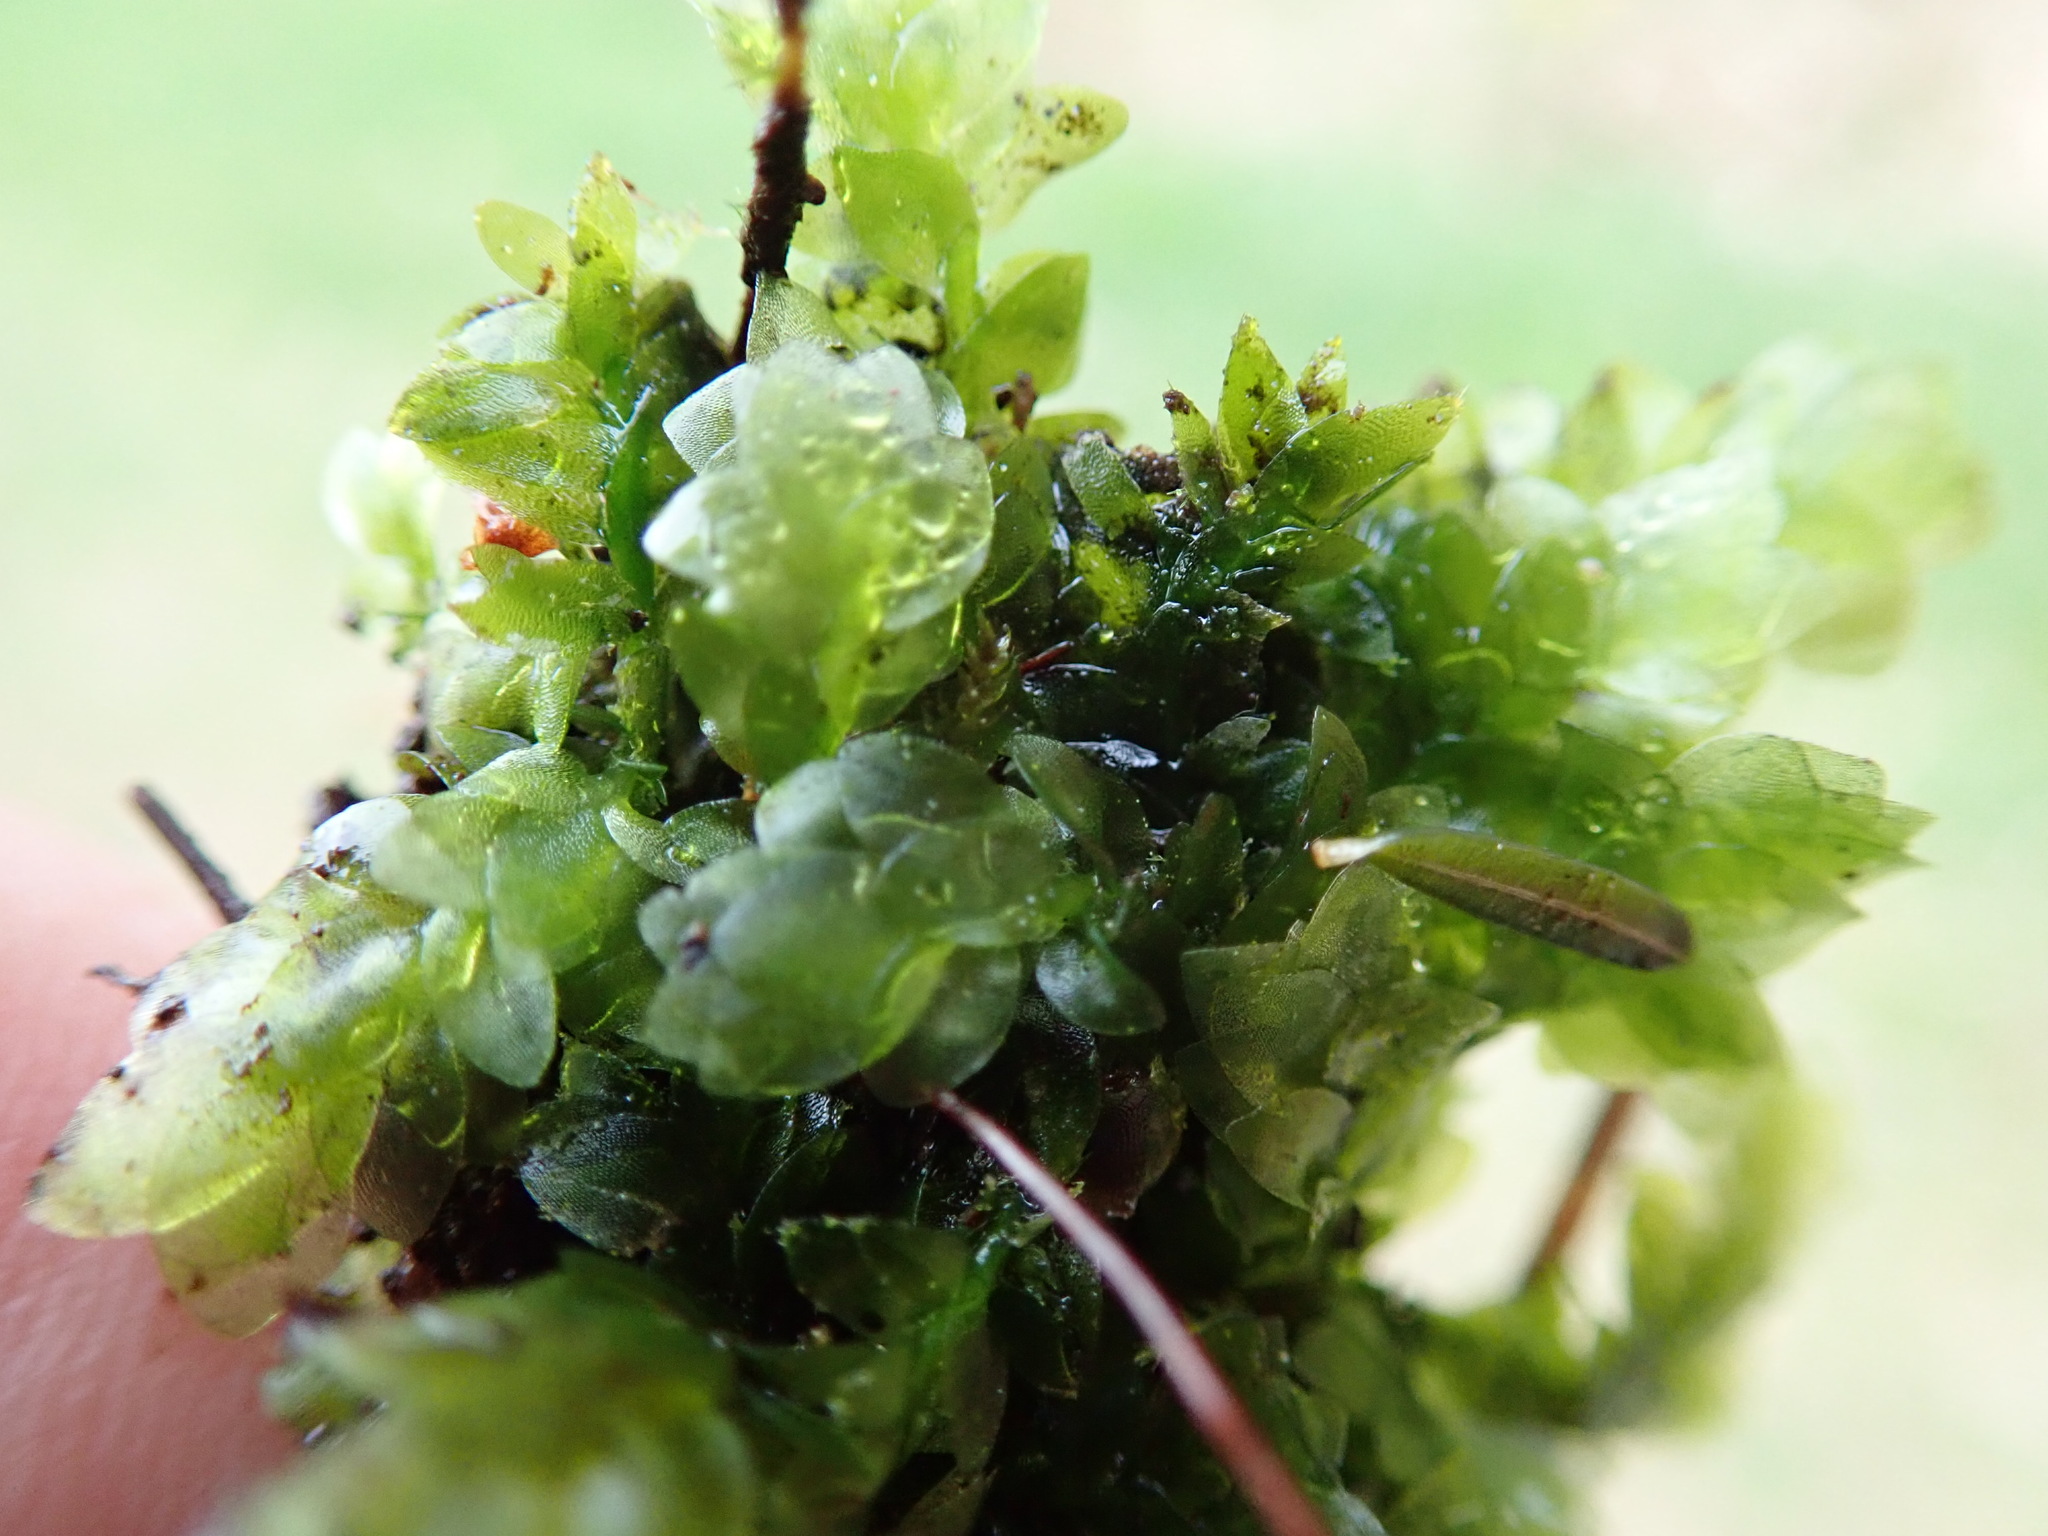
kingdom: Plantae
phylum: Bryophyta
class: Bryopsida
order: Hookeriales
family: Hookeriaceae
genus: Hookeria
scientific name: Hookeria lucens
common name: Shining hookeria
